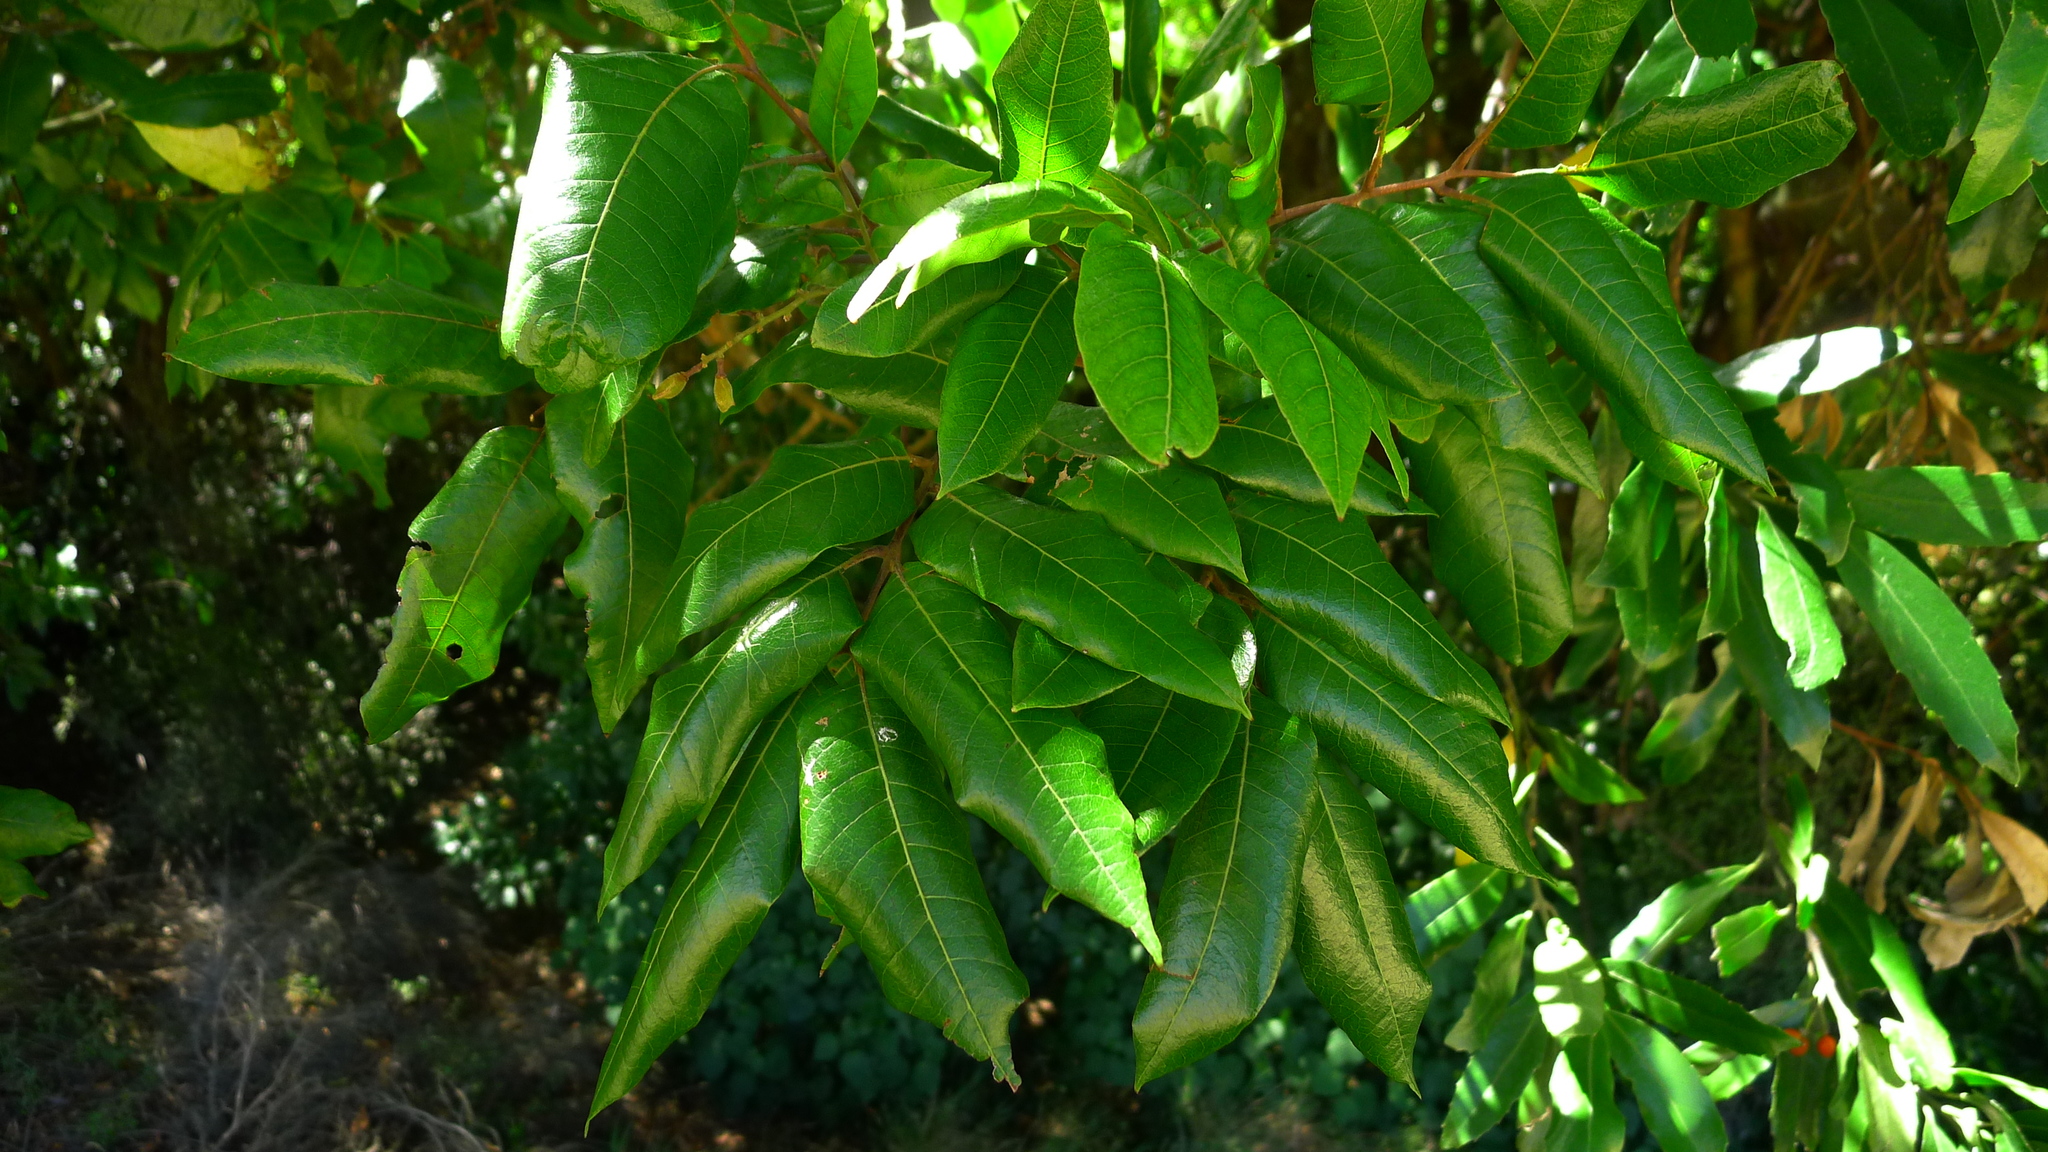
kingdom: Plantae
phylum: Tracheophyta
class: Magnoliopsida
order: Sapindales
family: Sapindaceae
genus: Alectryon
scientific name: Alectryon excelsus
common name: Three kings titoki
